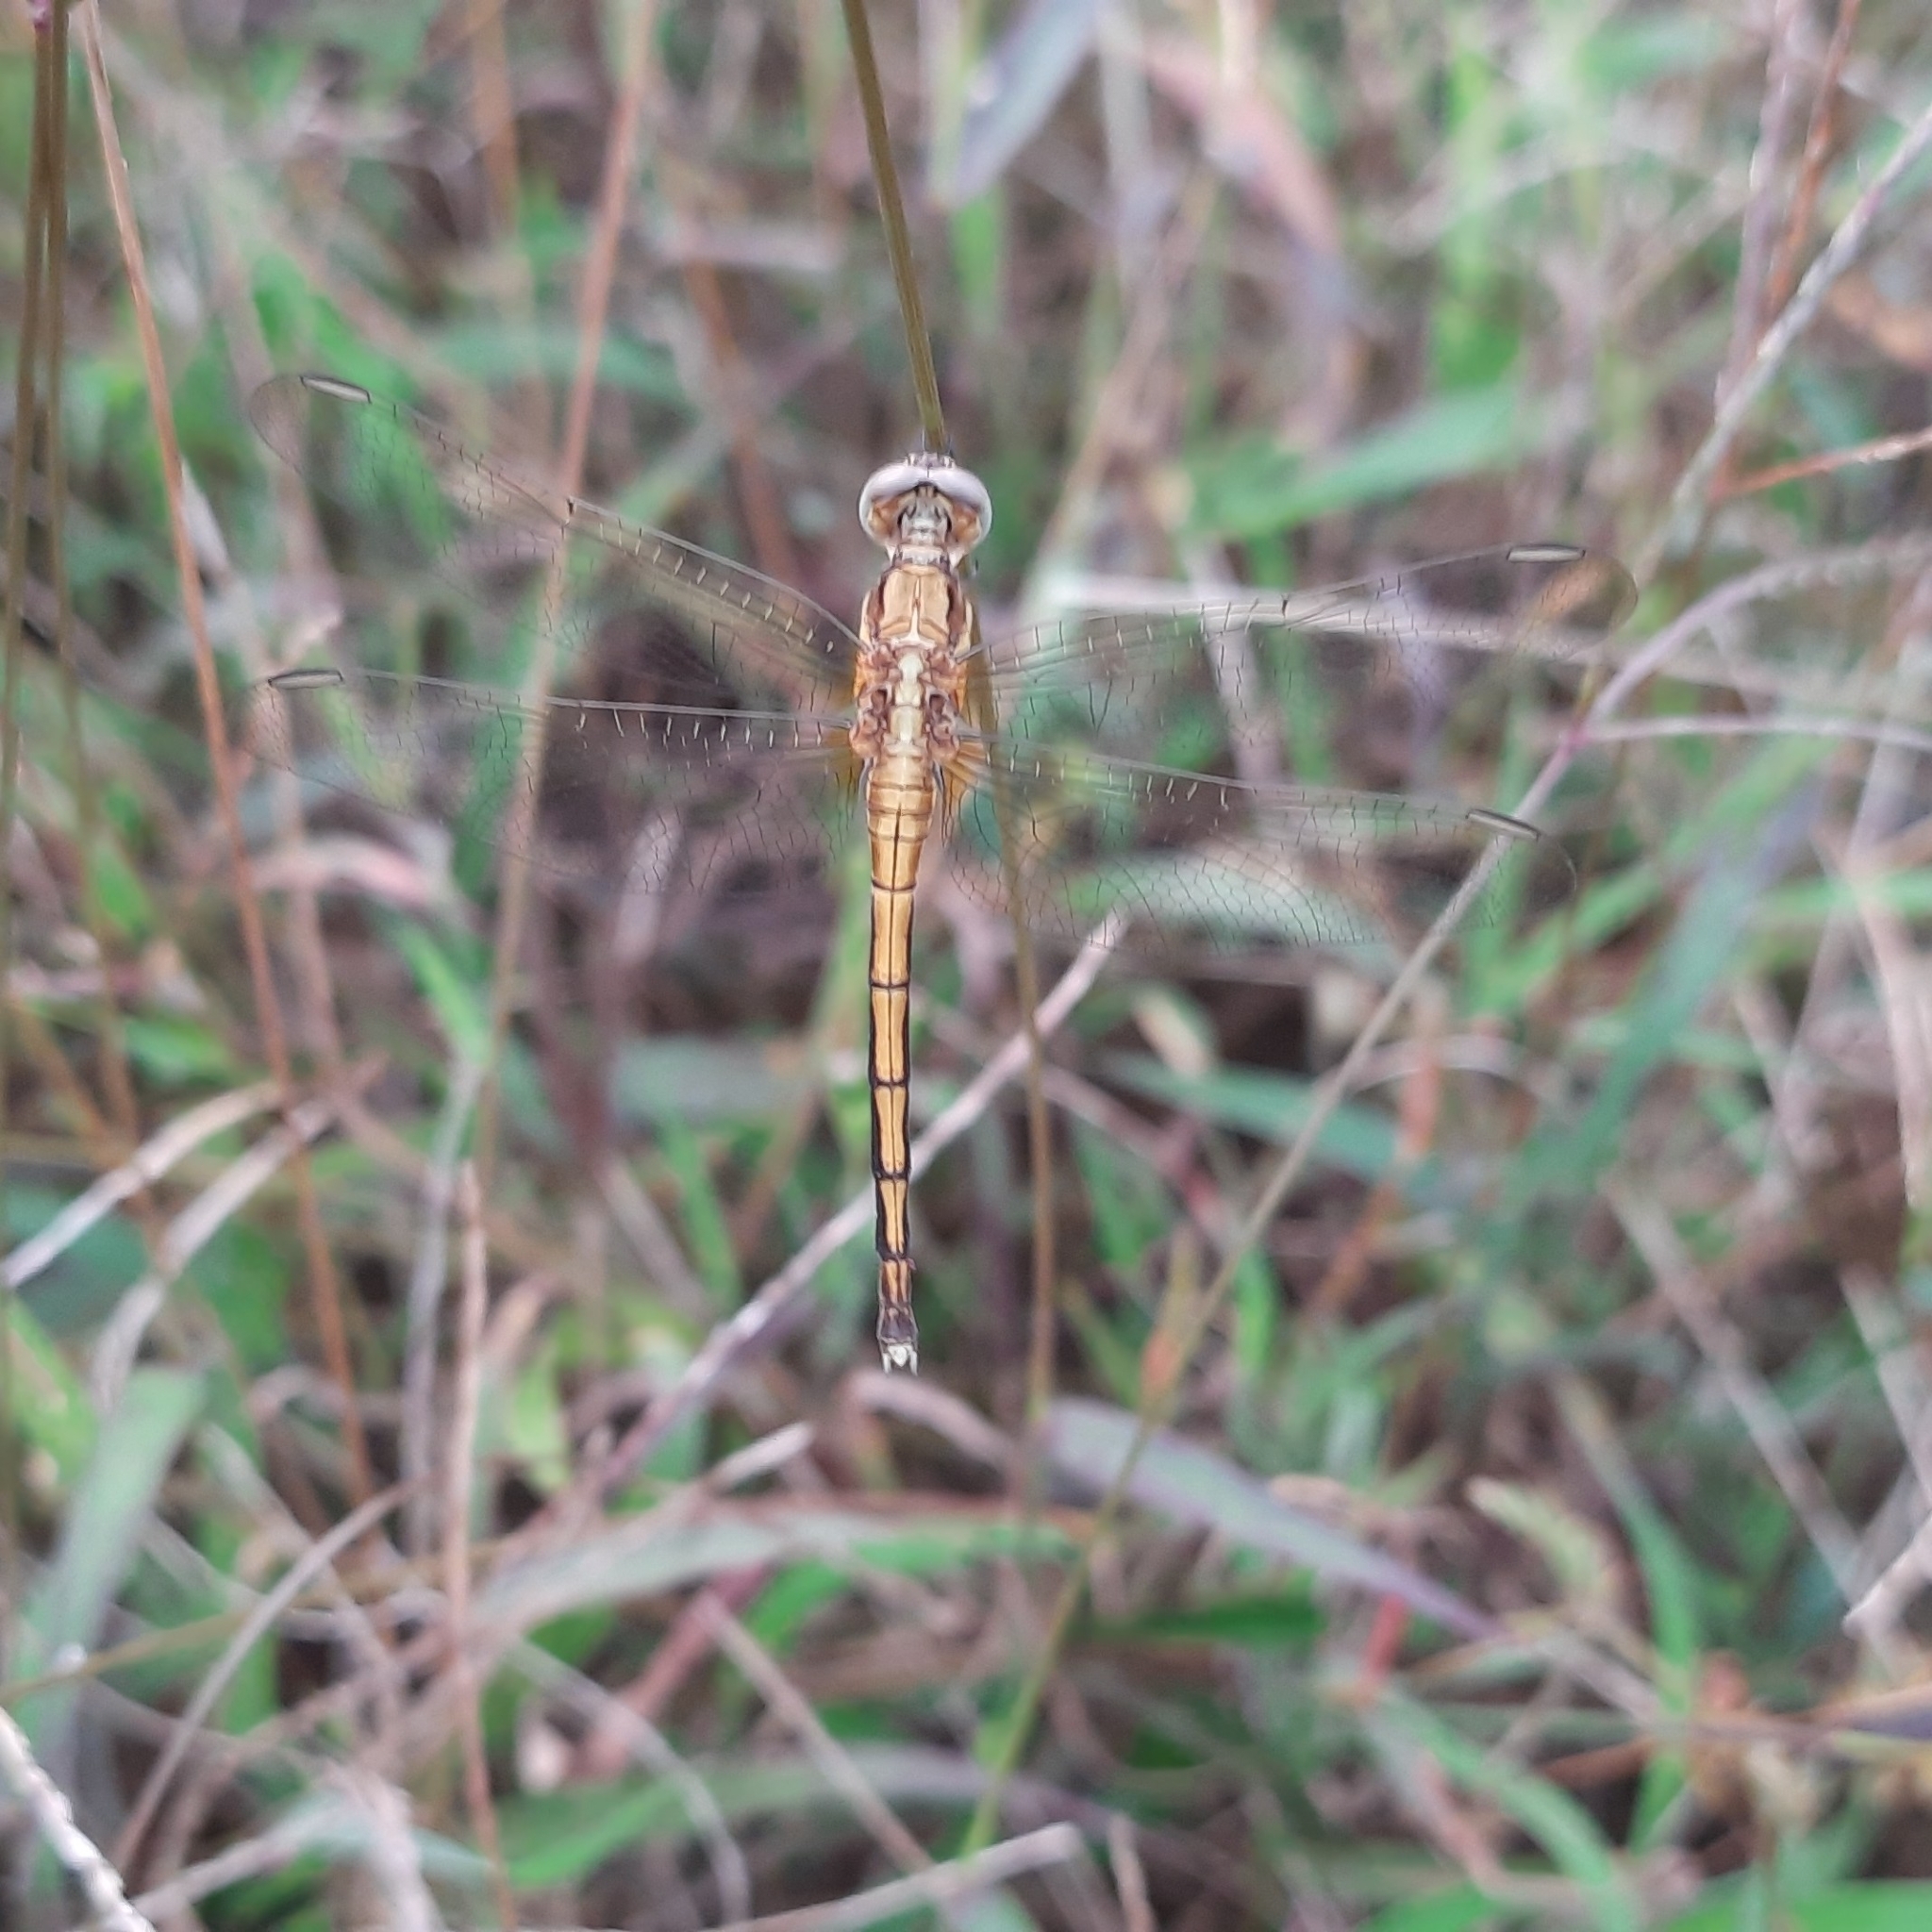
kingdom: Animalia
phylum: Arthropoda
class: Insecta
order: Odonata
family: Libellulidae
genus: Orthetrum
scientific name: Orthetrum luzonicum
